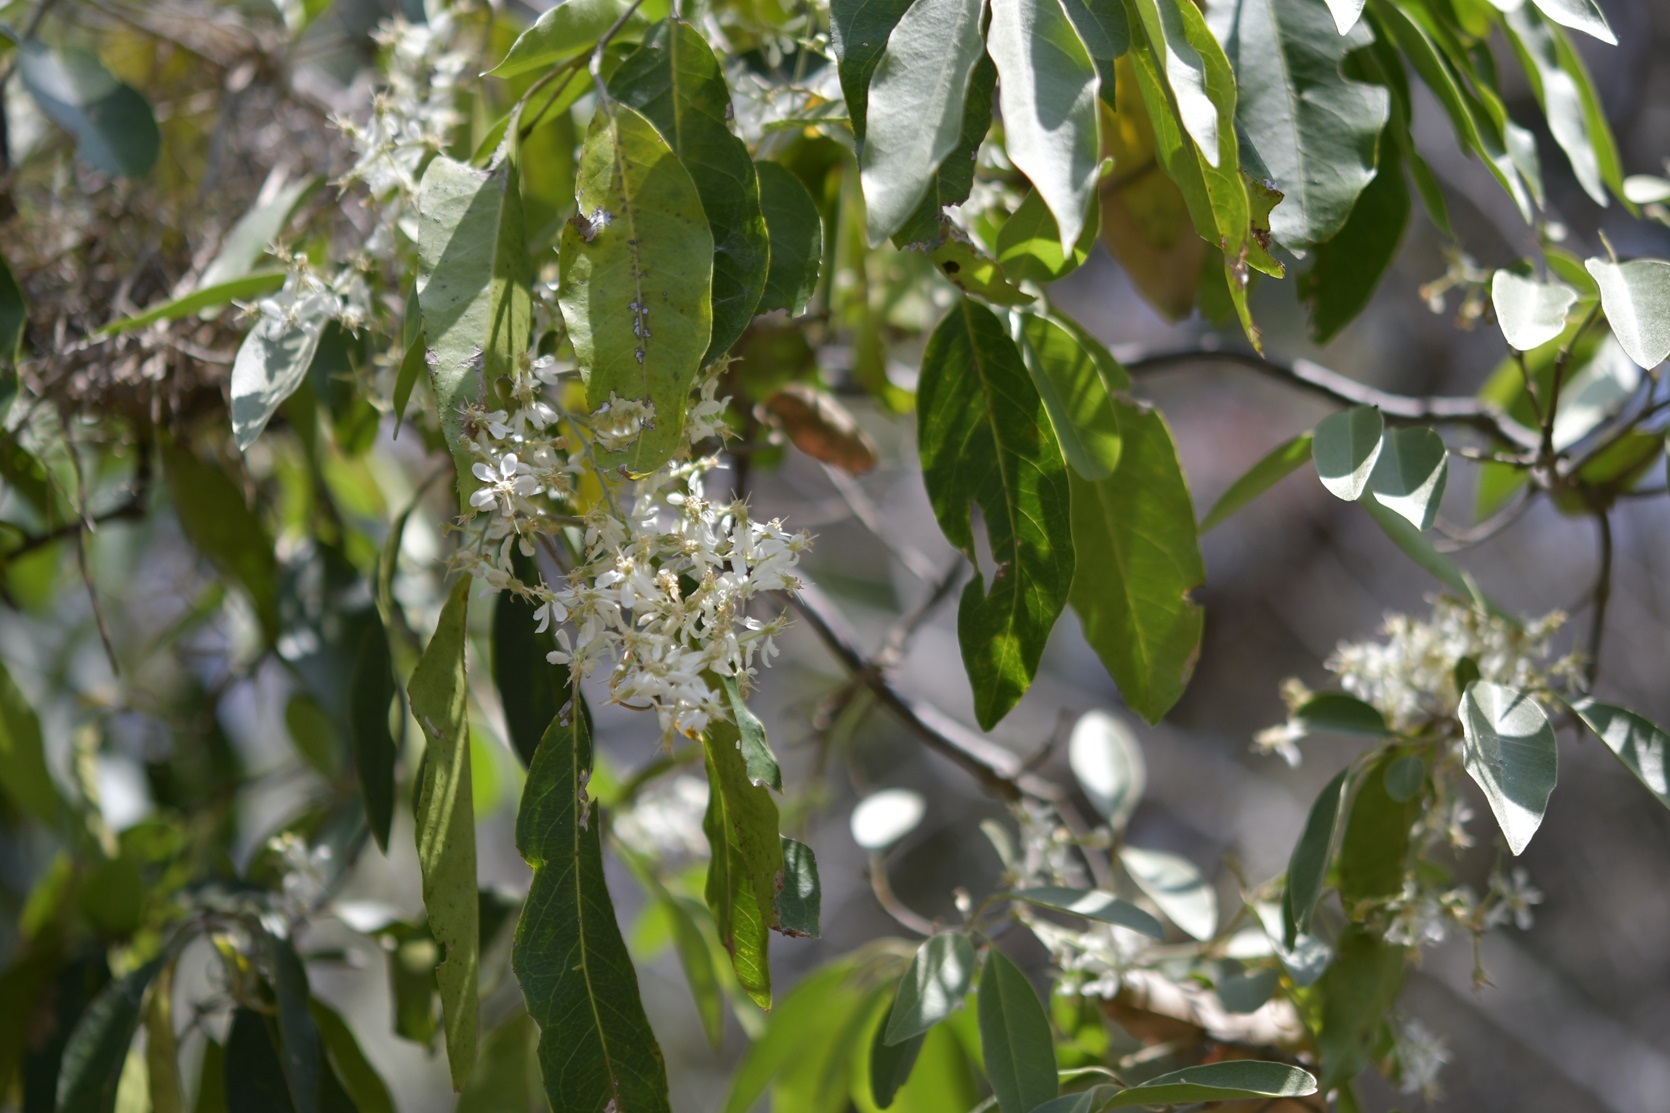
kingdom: Plantae
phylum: Tracheophyta
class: Magnoliopsida
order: Malpighiales
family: Malpighiaceae
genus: Psychopterys
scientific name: Psychopterys multiflora
